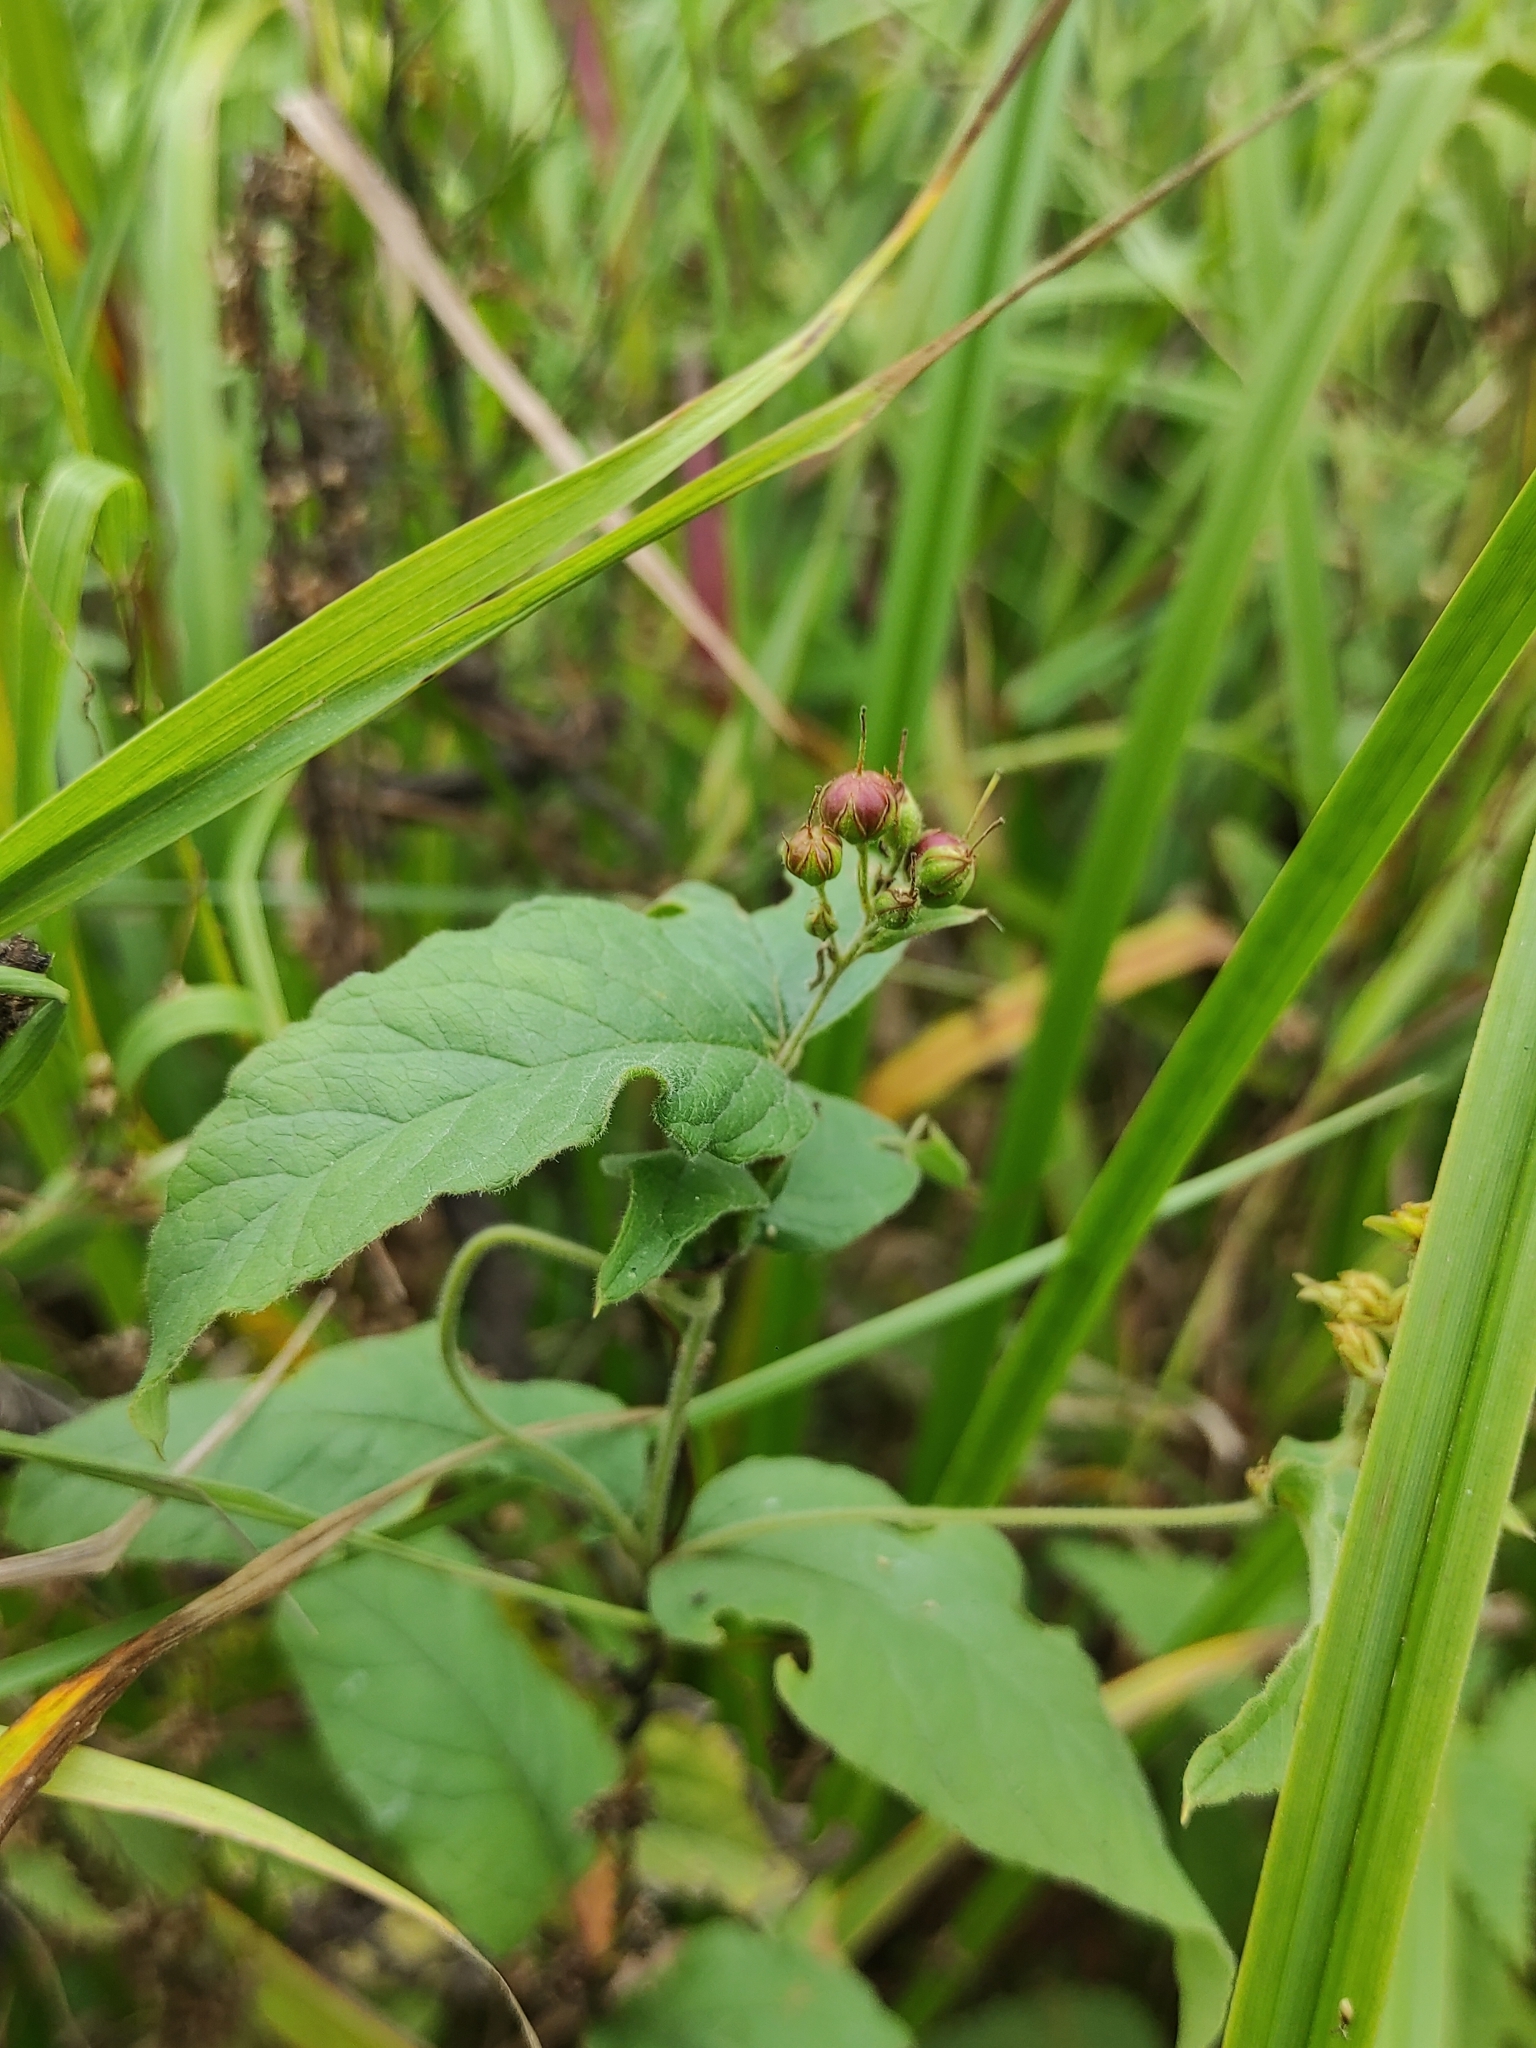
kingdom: Plantae
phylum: Tracheophyta
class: Magnoliopsida
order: Ericales
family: Primulaceae
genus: Lysimachia
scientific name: Lysimachia vulgaris
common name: Yellow loosestrife
